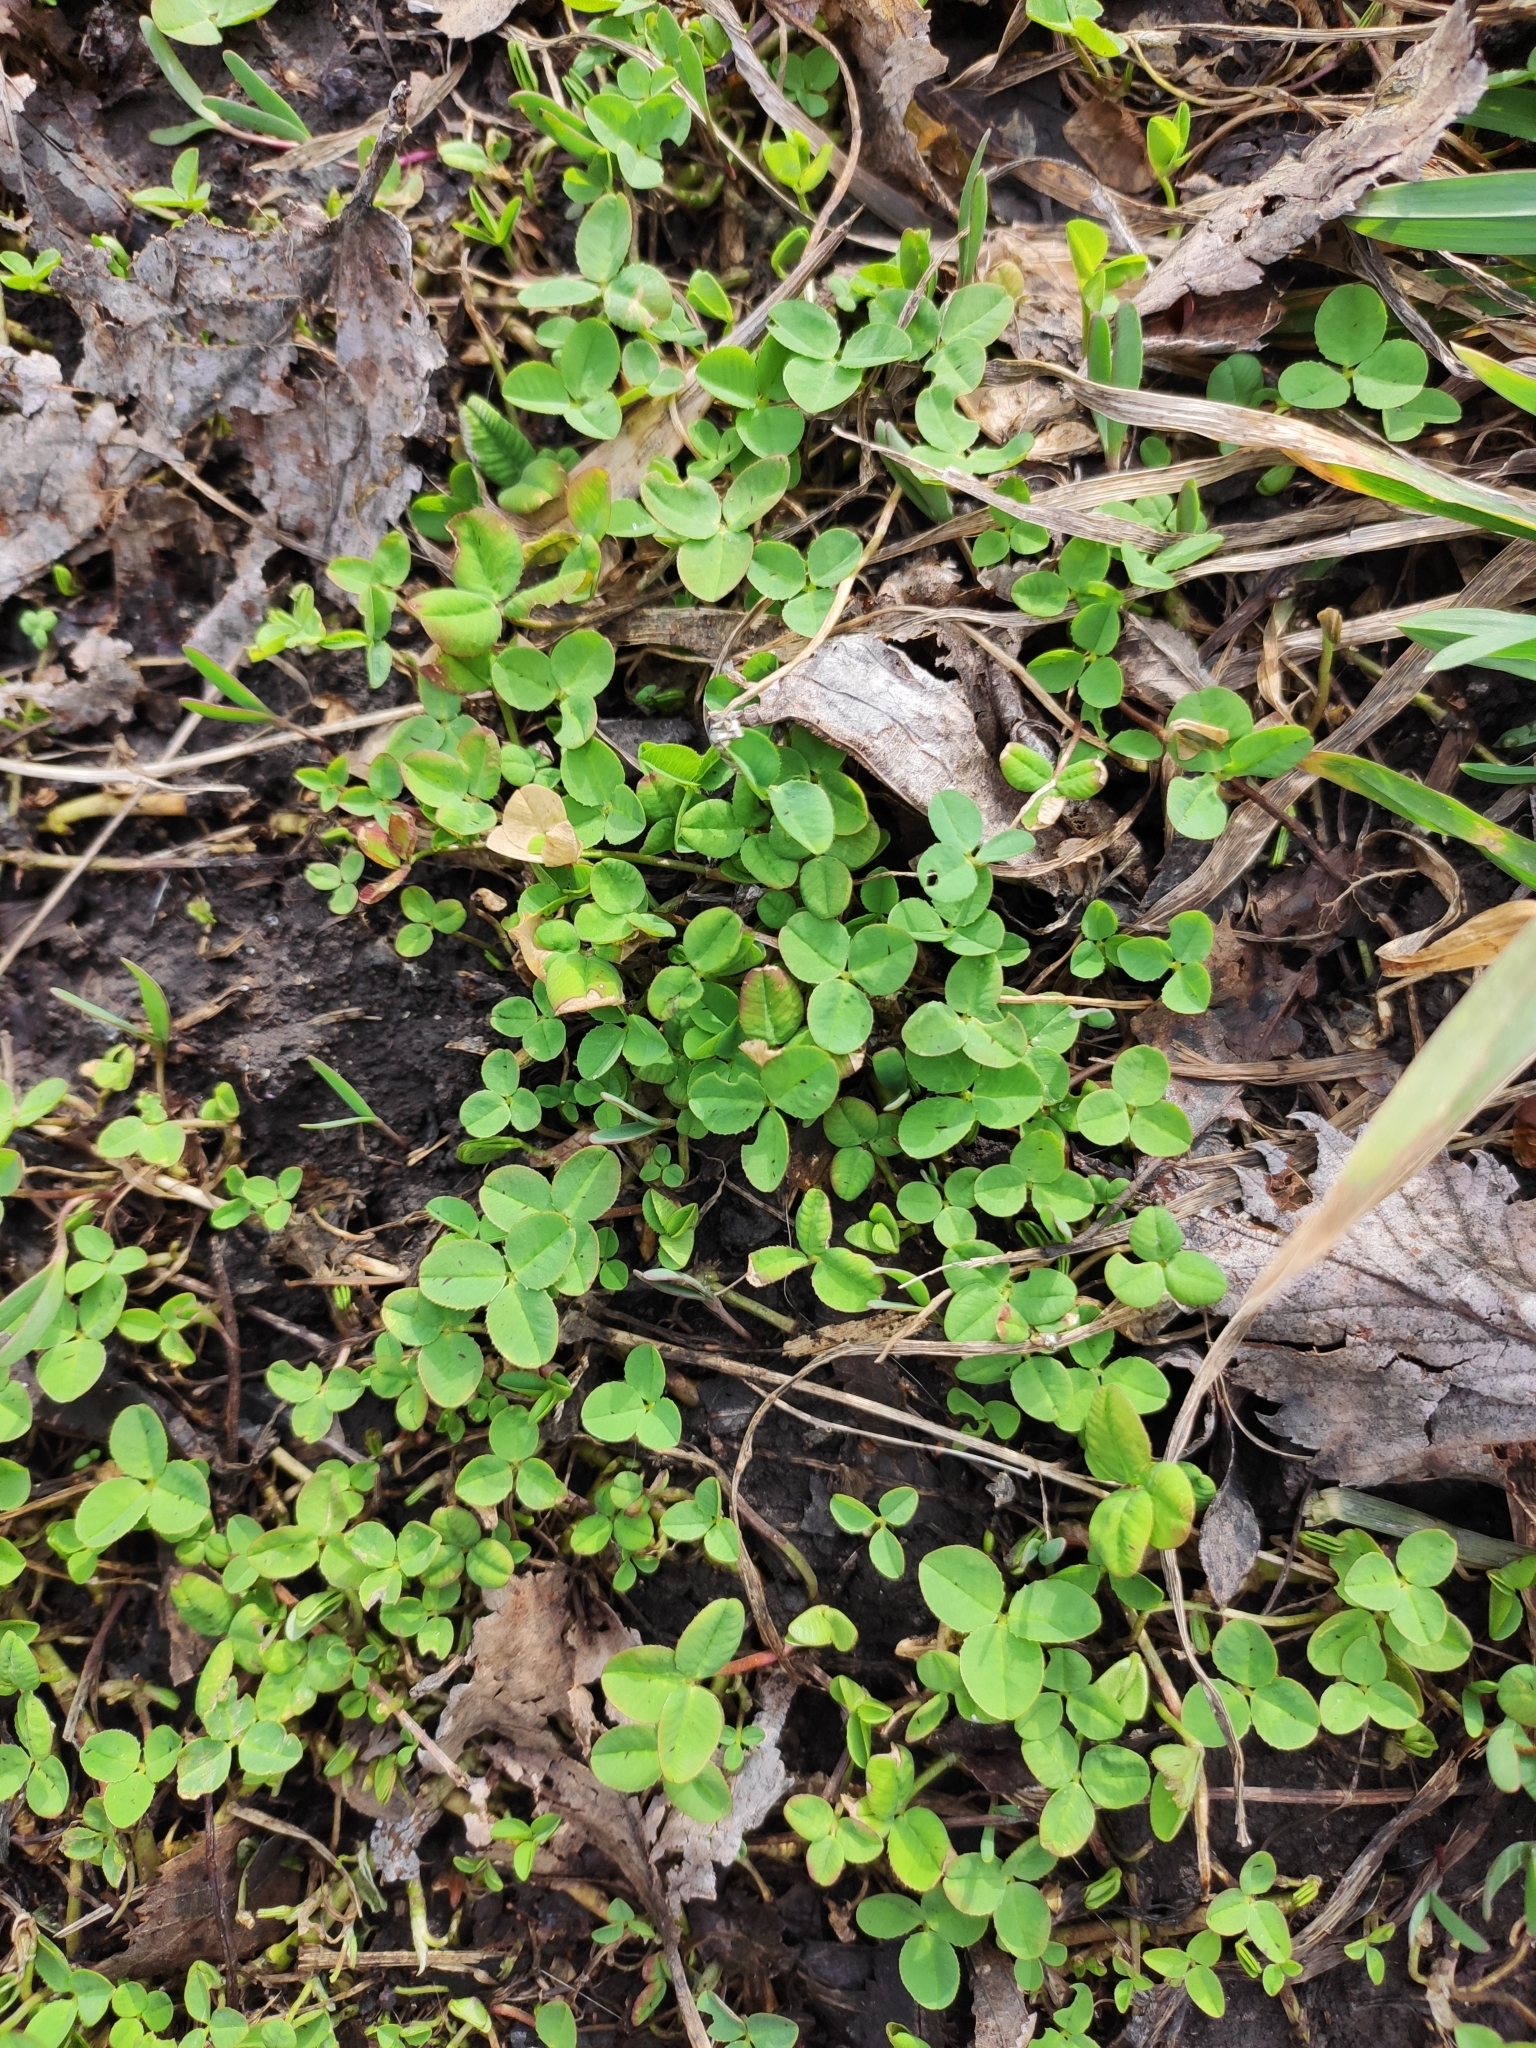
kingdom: Plantae
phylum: Tracheophyta
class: Magnoliopsida
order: Fabales
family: Fabaceae
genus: Trifolium
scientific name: Trifolium repens
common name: White clover
